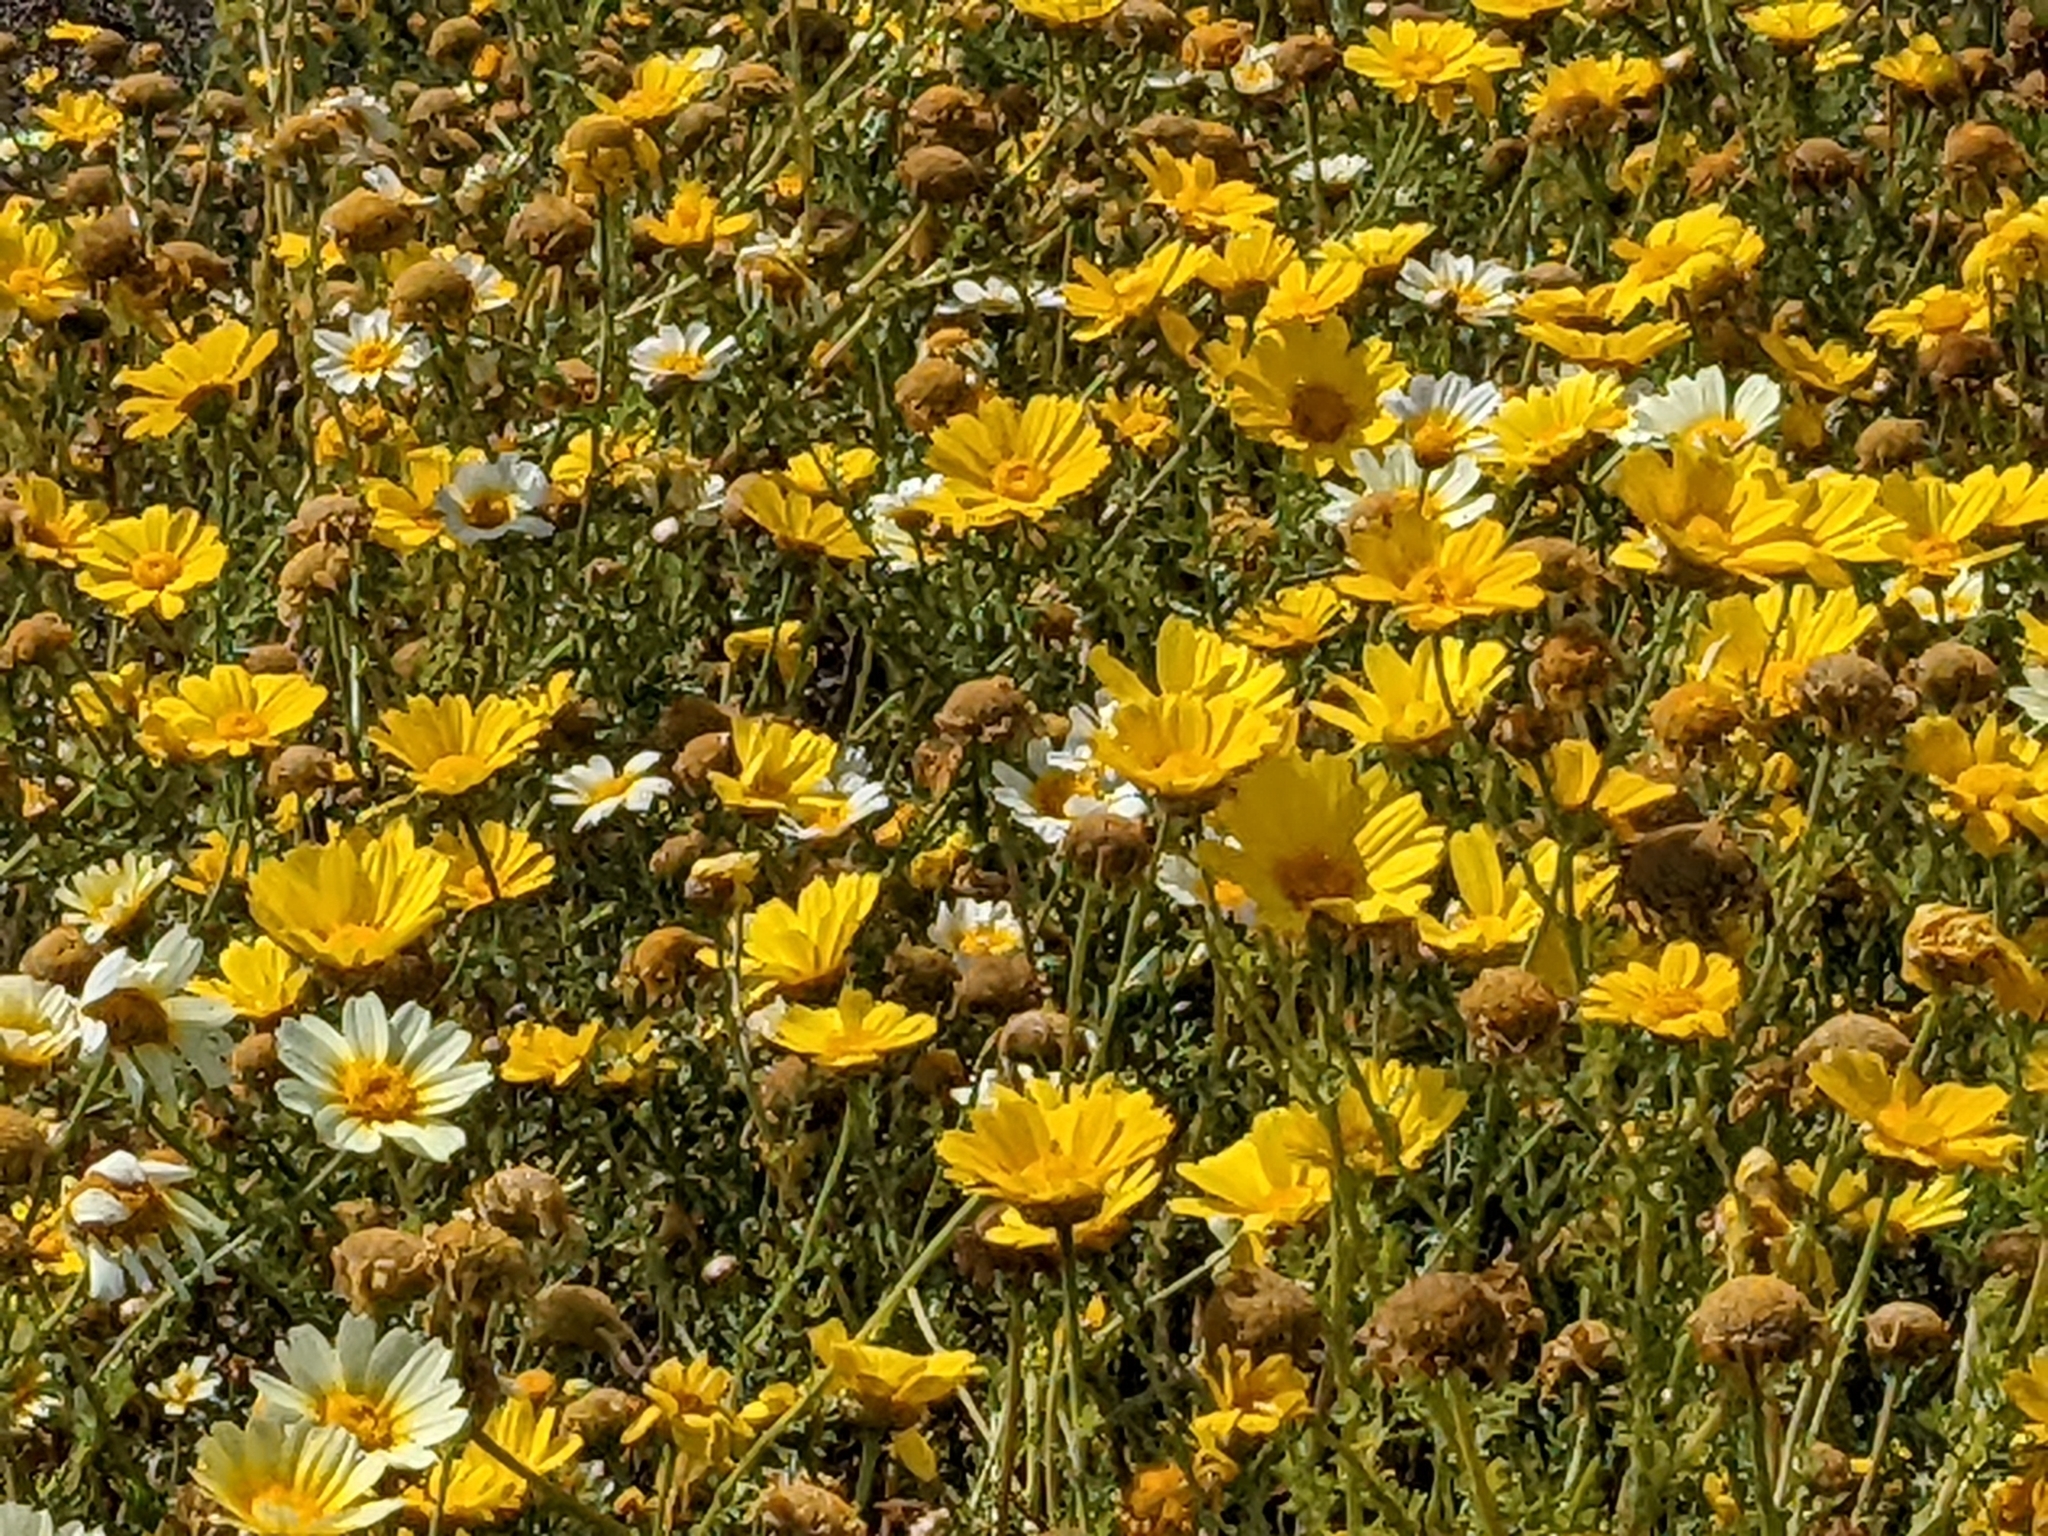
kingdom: Plantae
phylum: Tracheophyta
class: Magnoliopsida
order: Asterales
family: Asteraceae
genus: Glebionis
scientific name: Glebionis coronaria
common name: Crowndaisy
